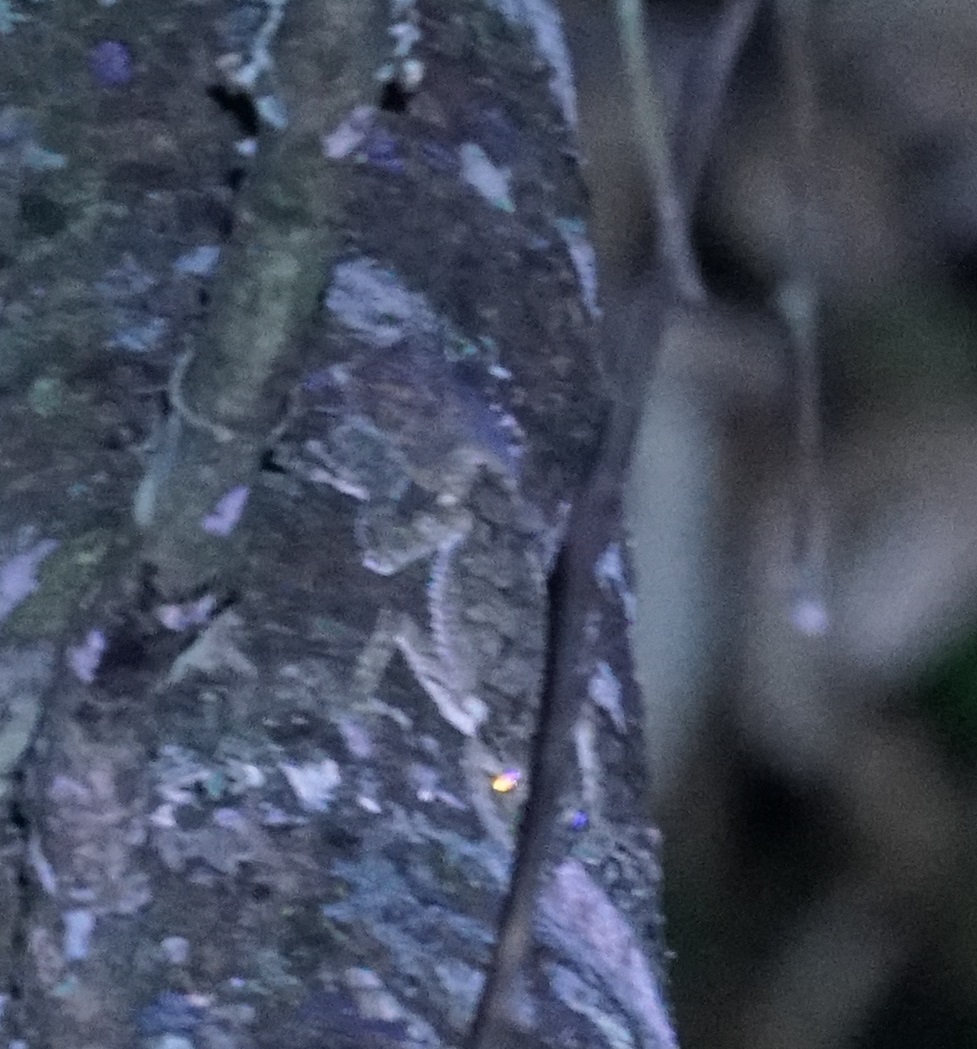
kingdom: Animalia
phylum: Chordata
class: Squamata
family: Carphodactylidae
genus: Saltuarius
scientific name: Saltuarius cornutus
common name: Leaf-tailed gecko
